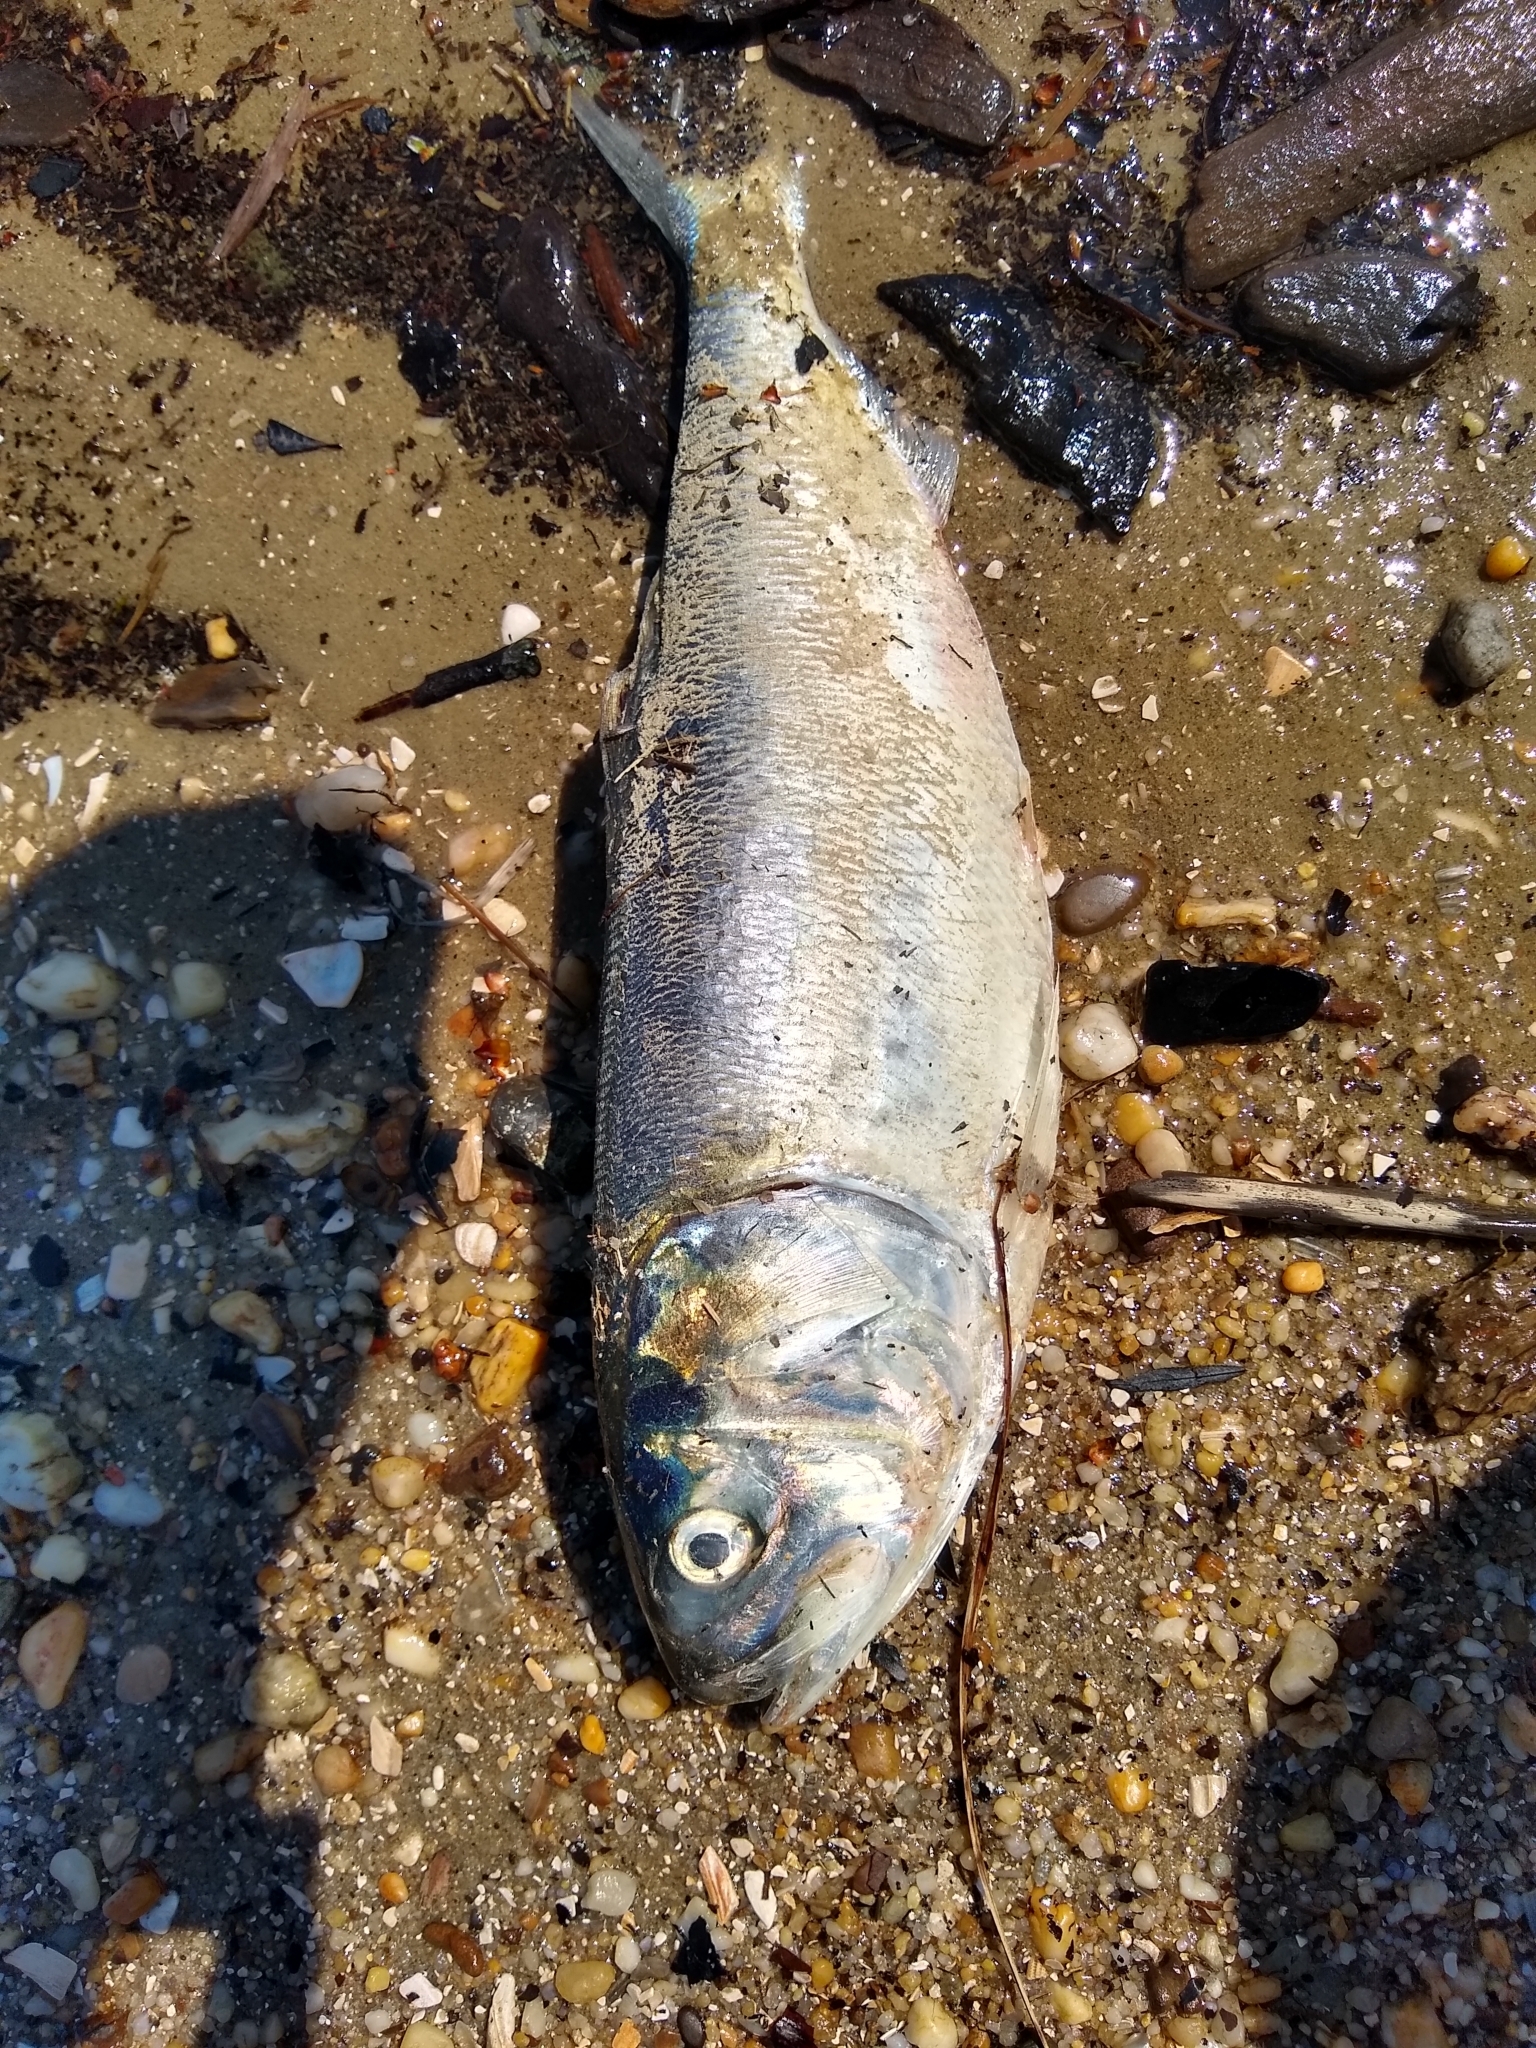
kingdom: Animalia
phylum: Chordata
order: Clupeiformes
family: Clupeidae
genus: Brevoortia
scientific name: Brevoortia tyrannus
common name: Atlantic menhaden
